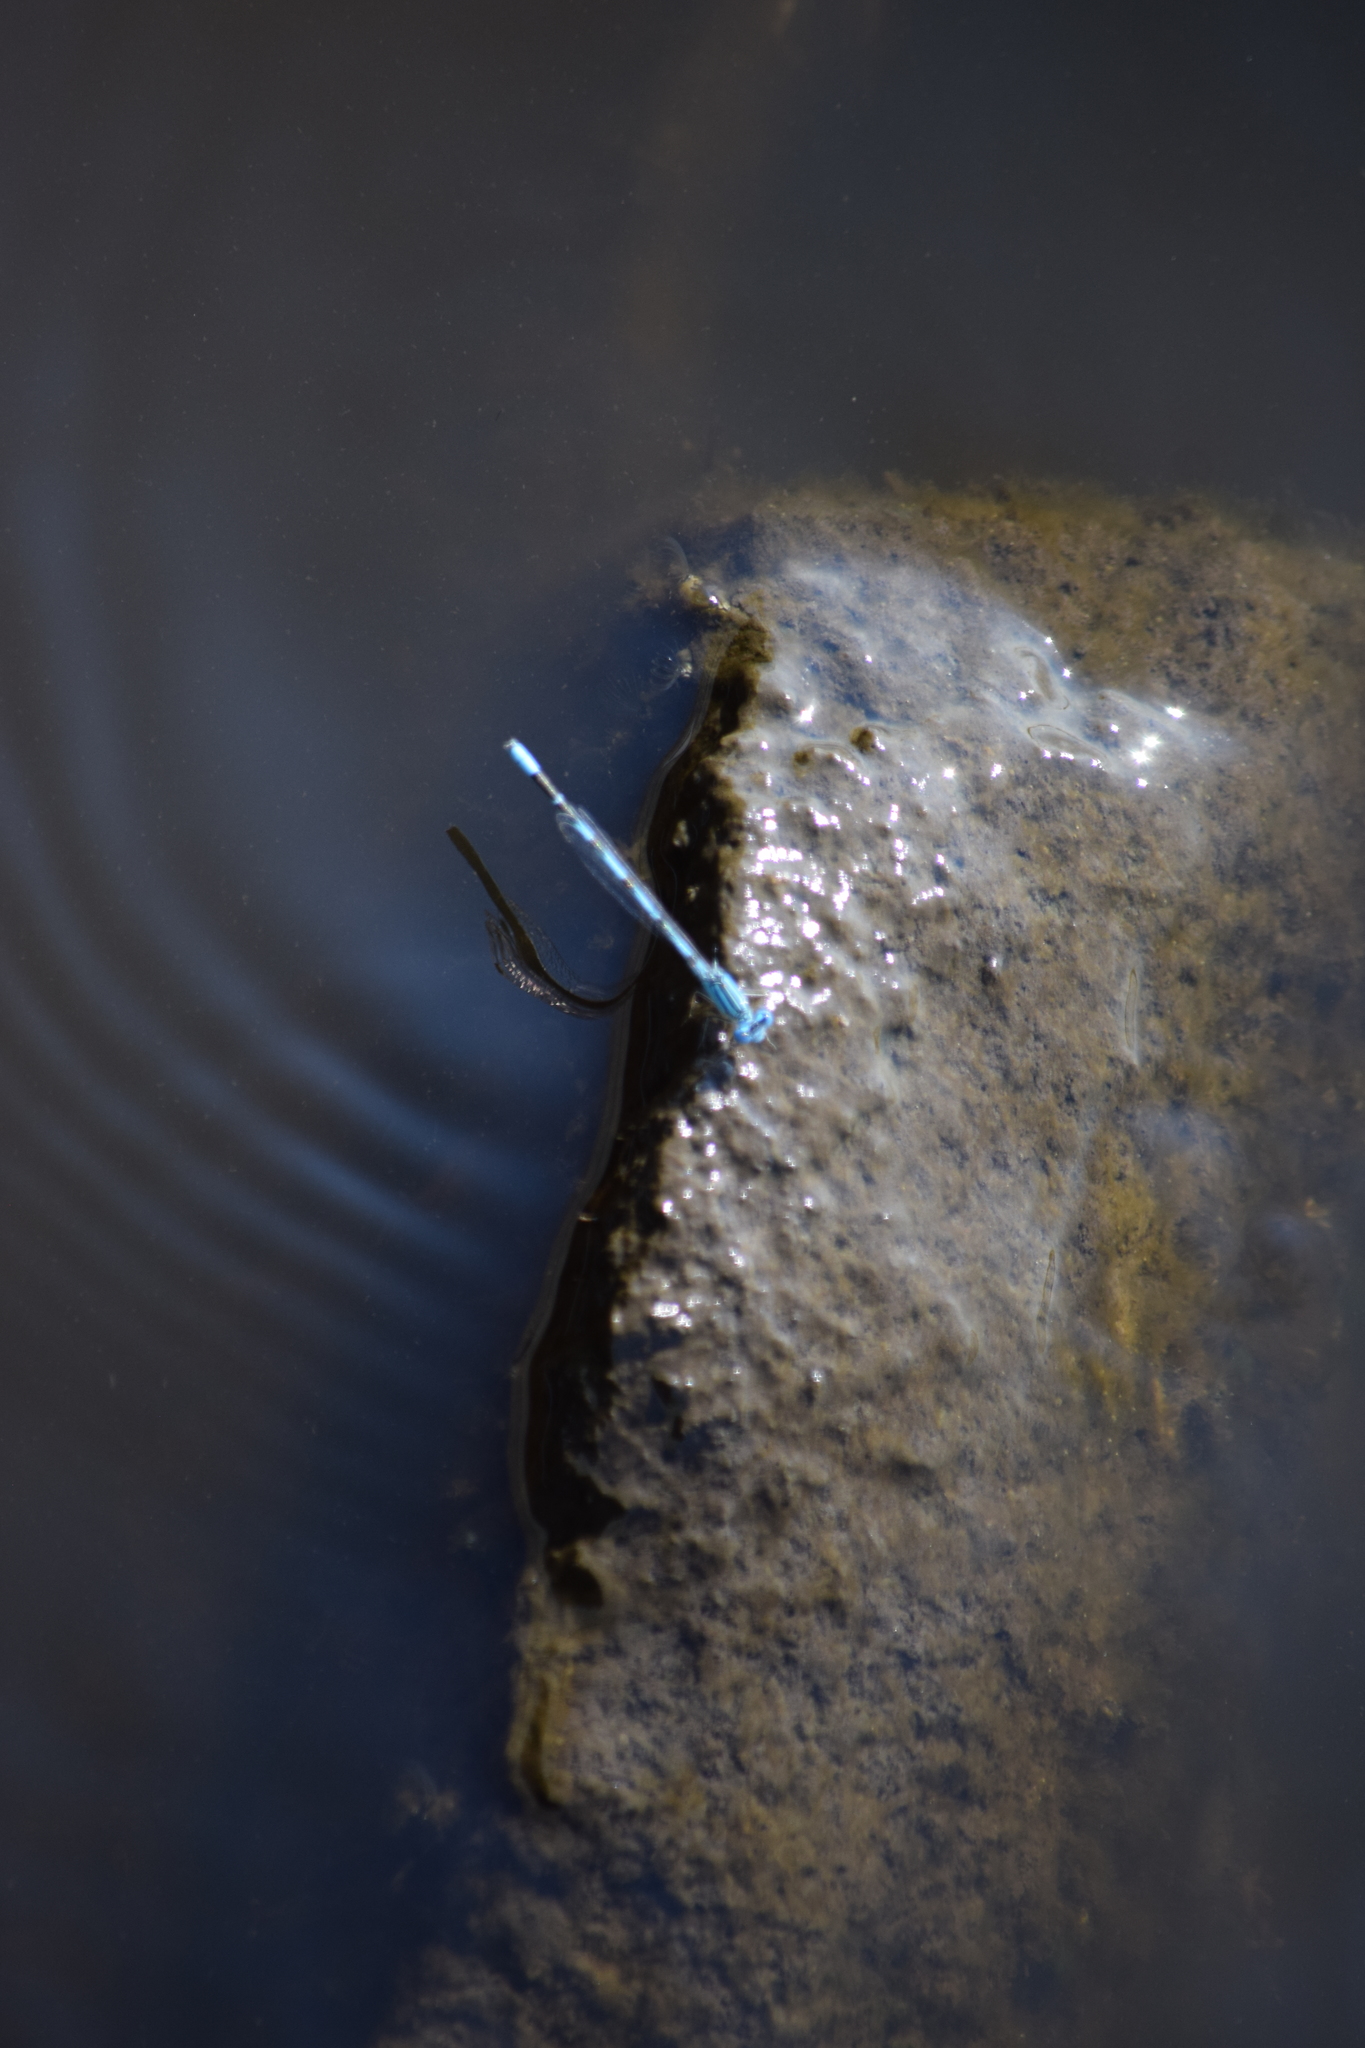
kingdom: Animalia
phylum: Arthropoda
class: Insecta
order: Odonata
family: Coenagrionidae
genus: Enallagma
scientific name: Enallagma durum
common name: Big bluet
